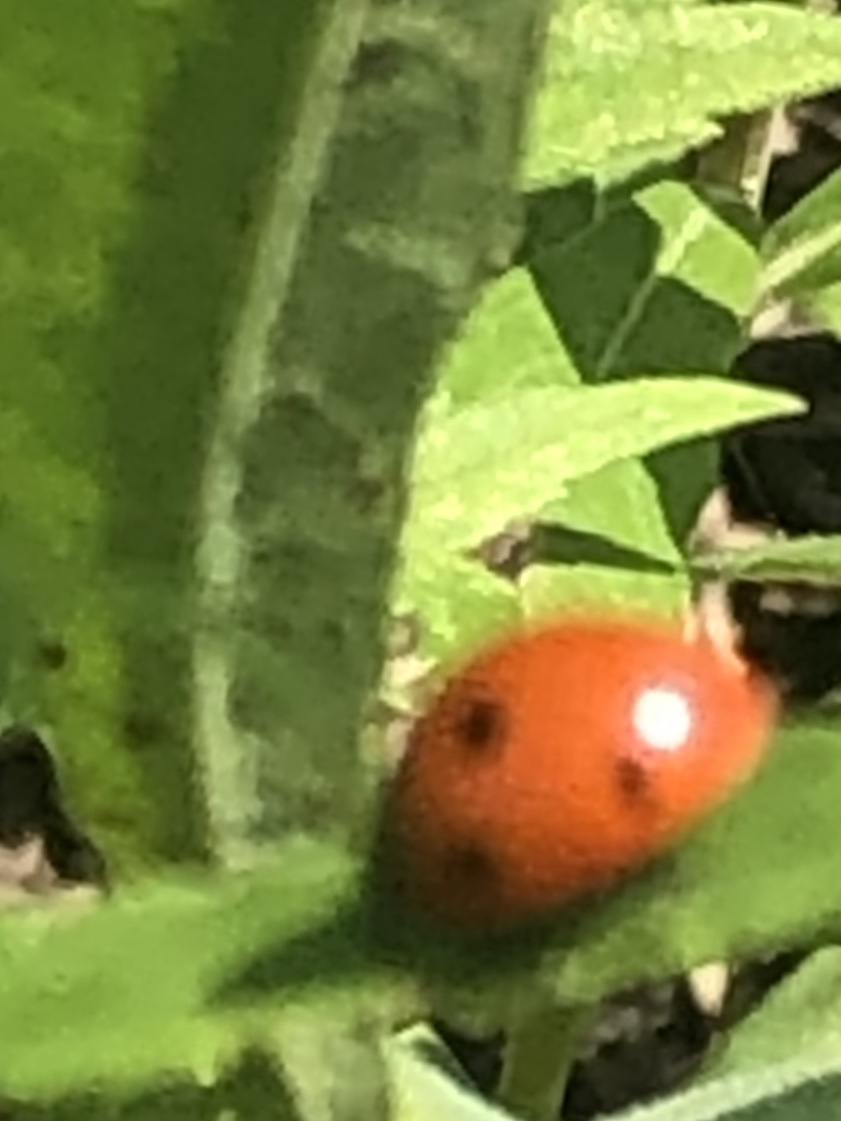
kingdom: Animalia
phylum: Arthropoda
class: Insecta
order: Coleoptera
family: Coccinellidae
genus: Coccinella
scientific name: Coccinella septempunctata
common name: Sevenspotted lady beetle
